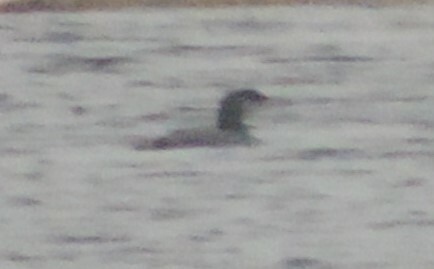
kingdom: Animalia
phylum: Chordata
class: Aves
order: Gaviiformes
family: Gaviidae
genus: Gavia
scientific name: Gavia immer
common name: Common loon
